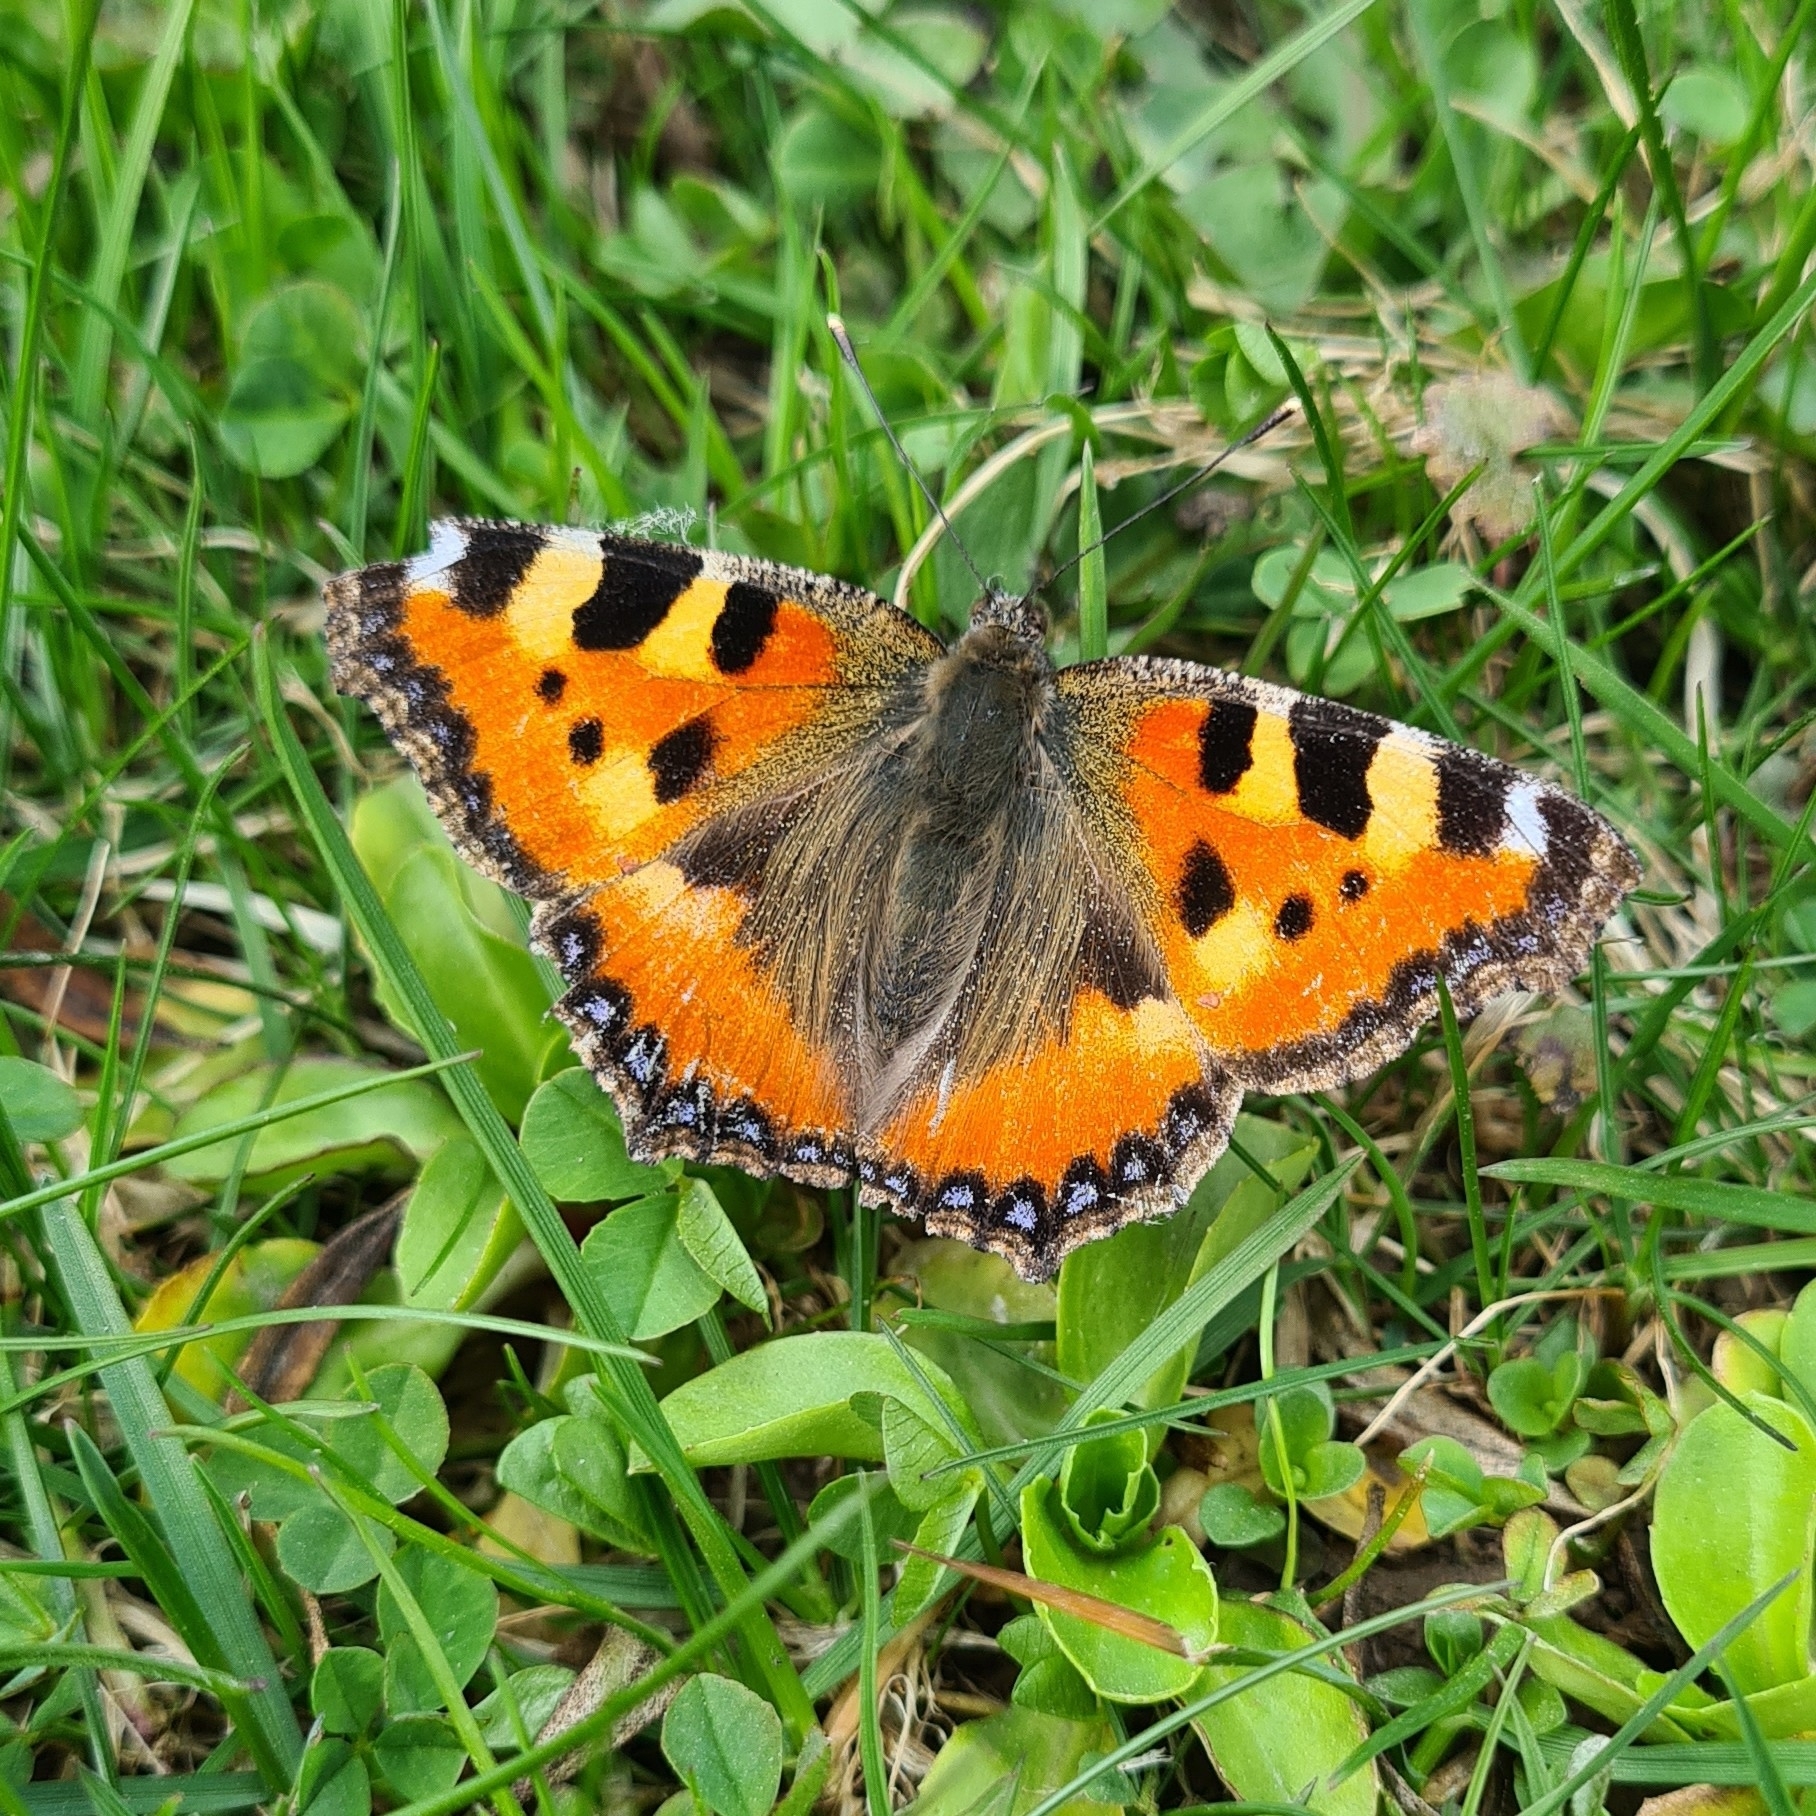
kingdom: Animalia
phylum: Arthropoda
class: Insecta
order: Lepidoptera
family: Nymphalidae
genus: Aglais
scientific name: Aglais urticae
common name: Small tortoiseshell
